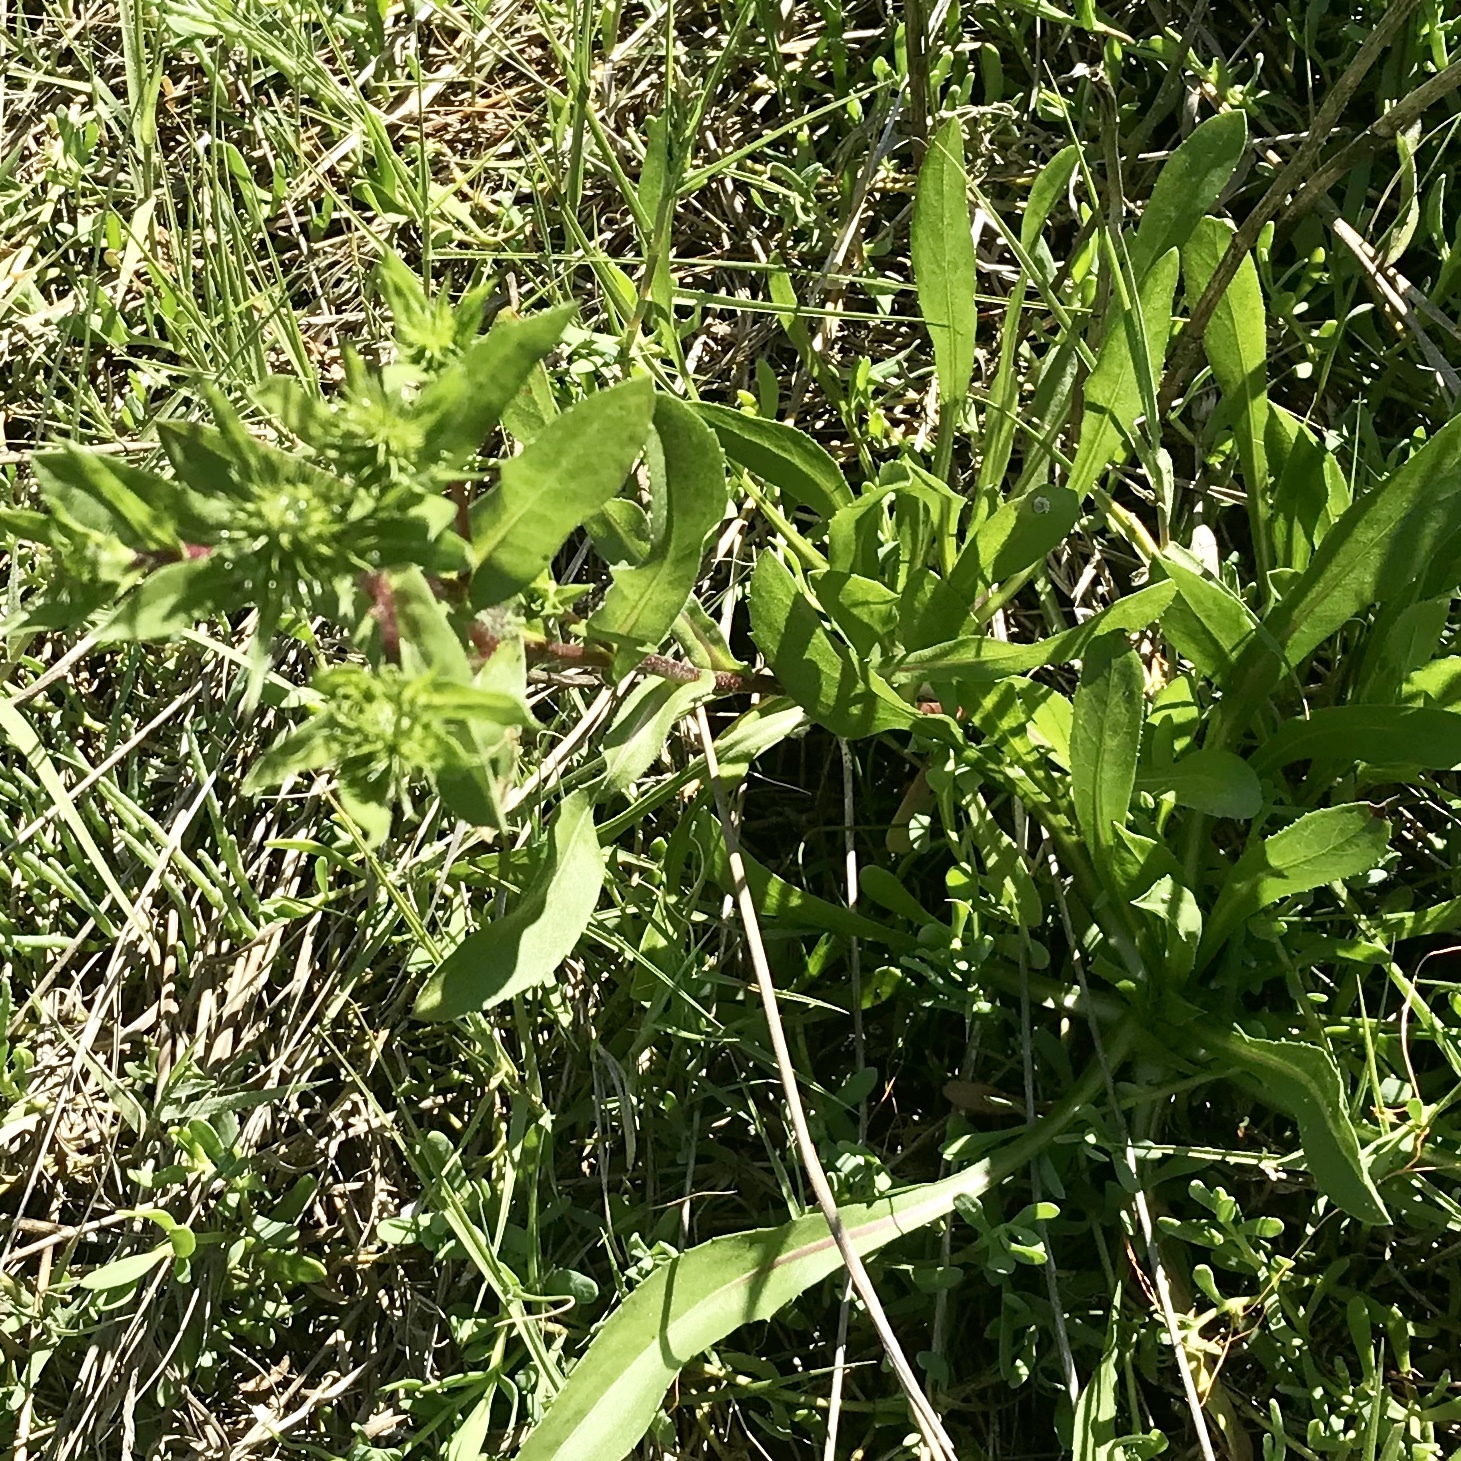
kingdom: Plantae
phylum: Tracheophyta
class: Magnoliopsida
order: Caryophyllales
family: Polygonaceae
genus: Rumex
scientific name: Rumex acetosella
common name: Common sheep sorrel
